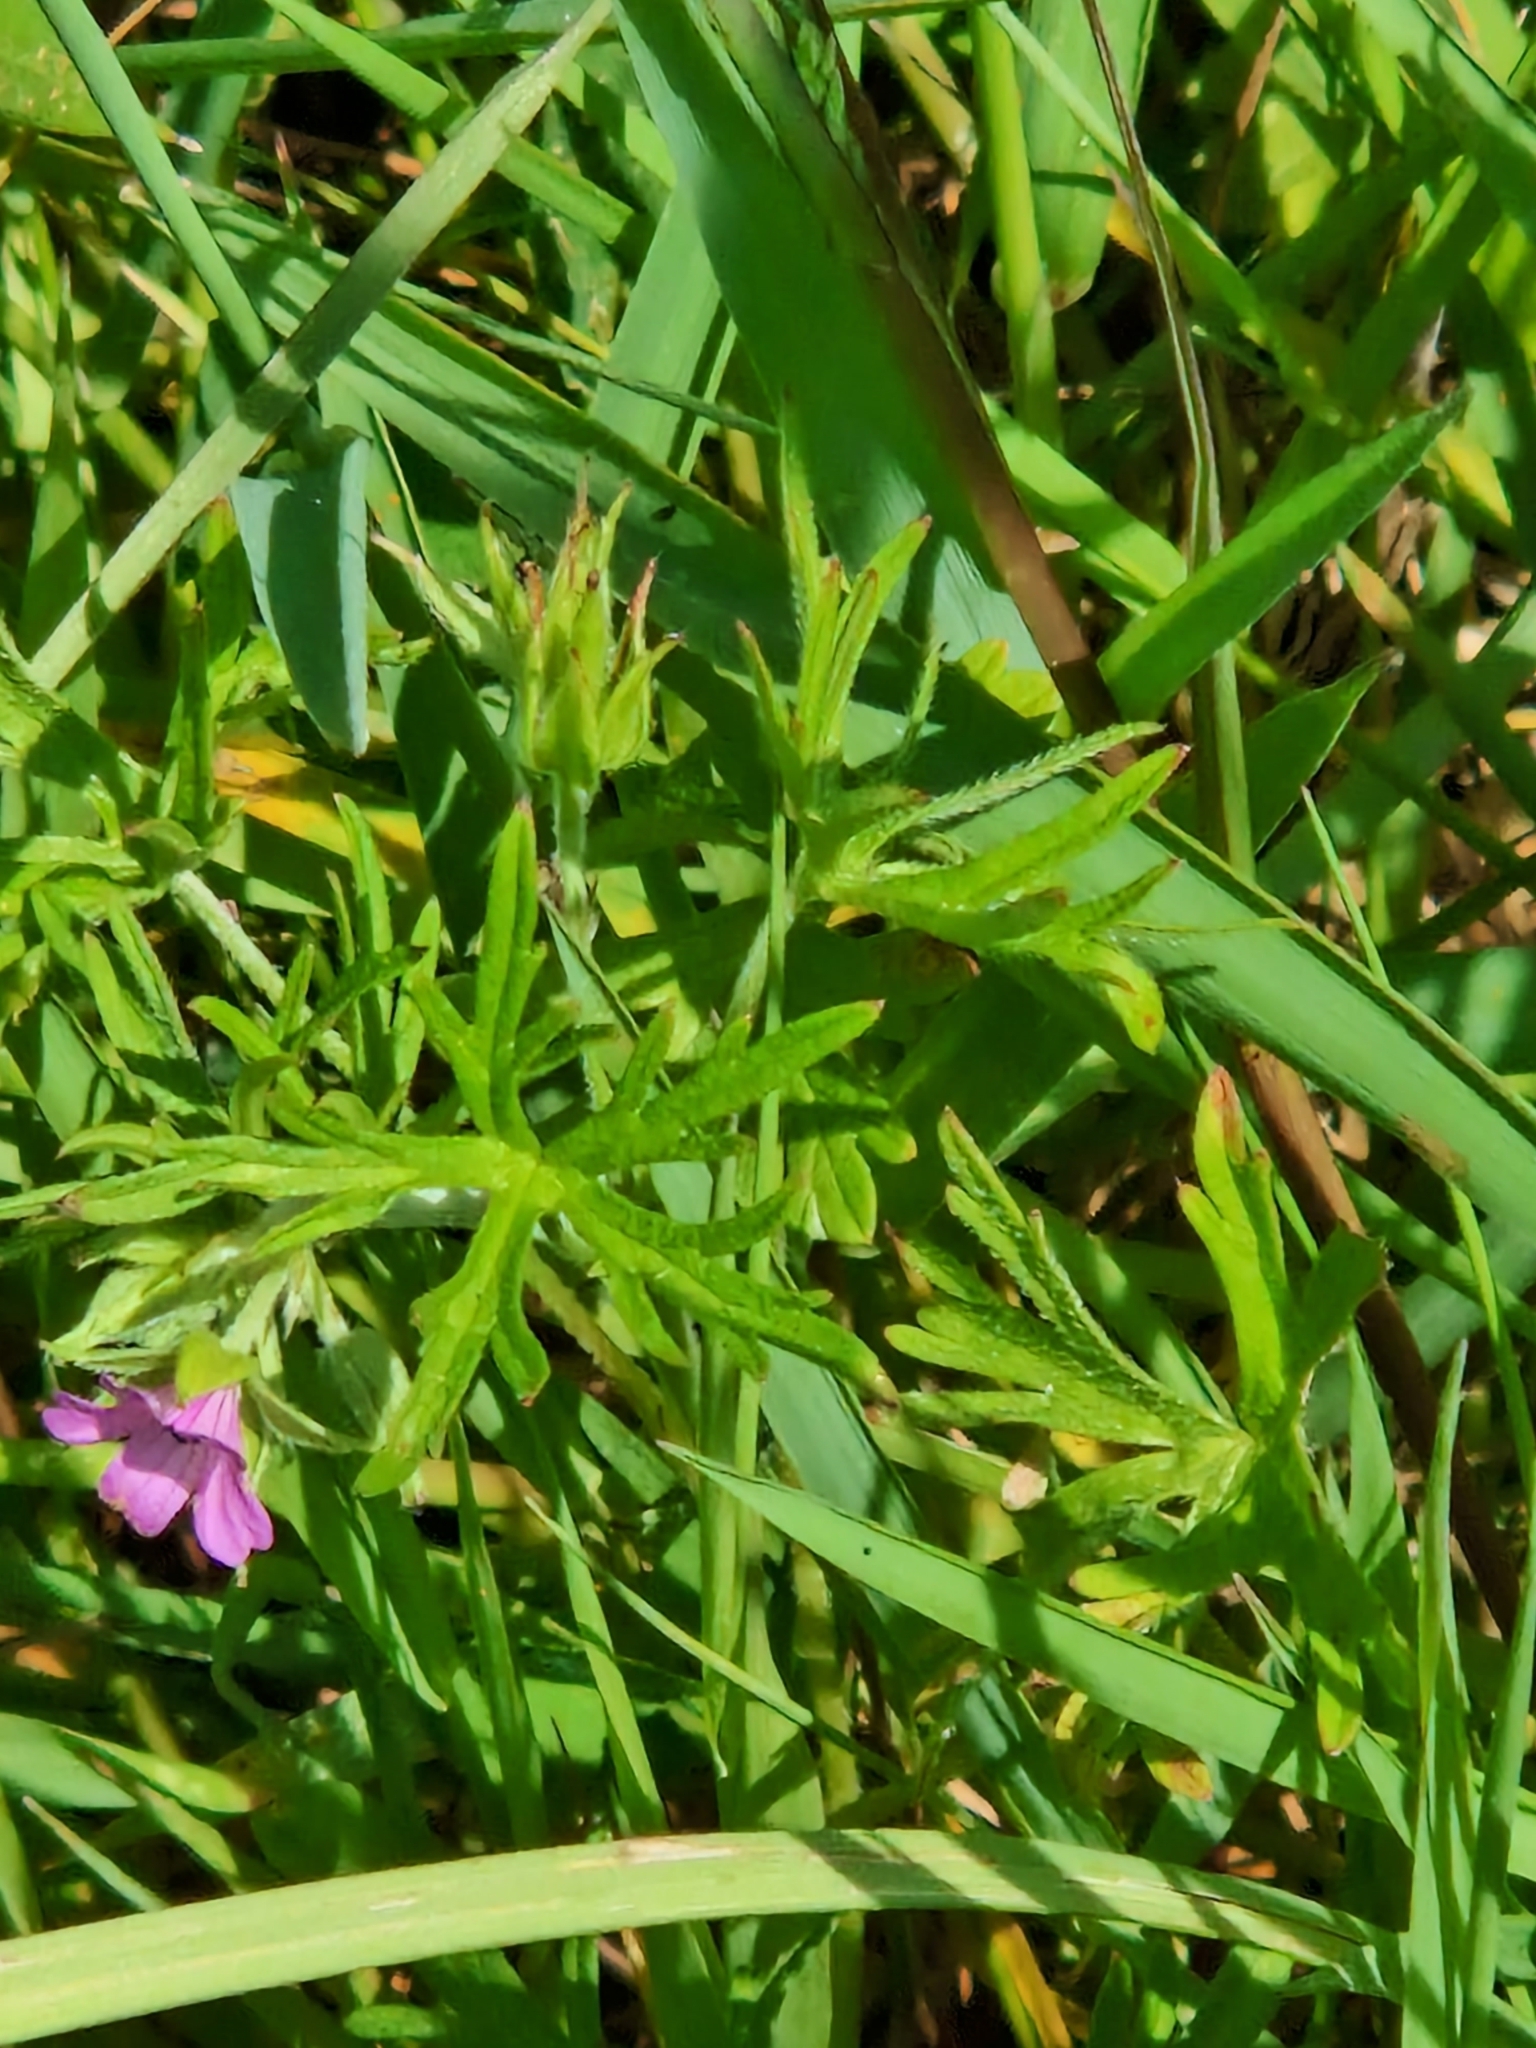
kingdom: Plantae
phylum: Tracheophyta
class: Magnoliopsida
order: Geraniales
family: Geraniaceae
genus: Geranium
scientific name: Geranium dissectum
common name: Cut-leaved crane's-bill
